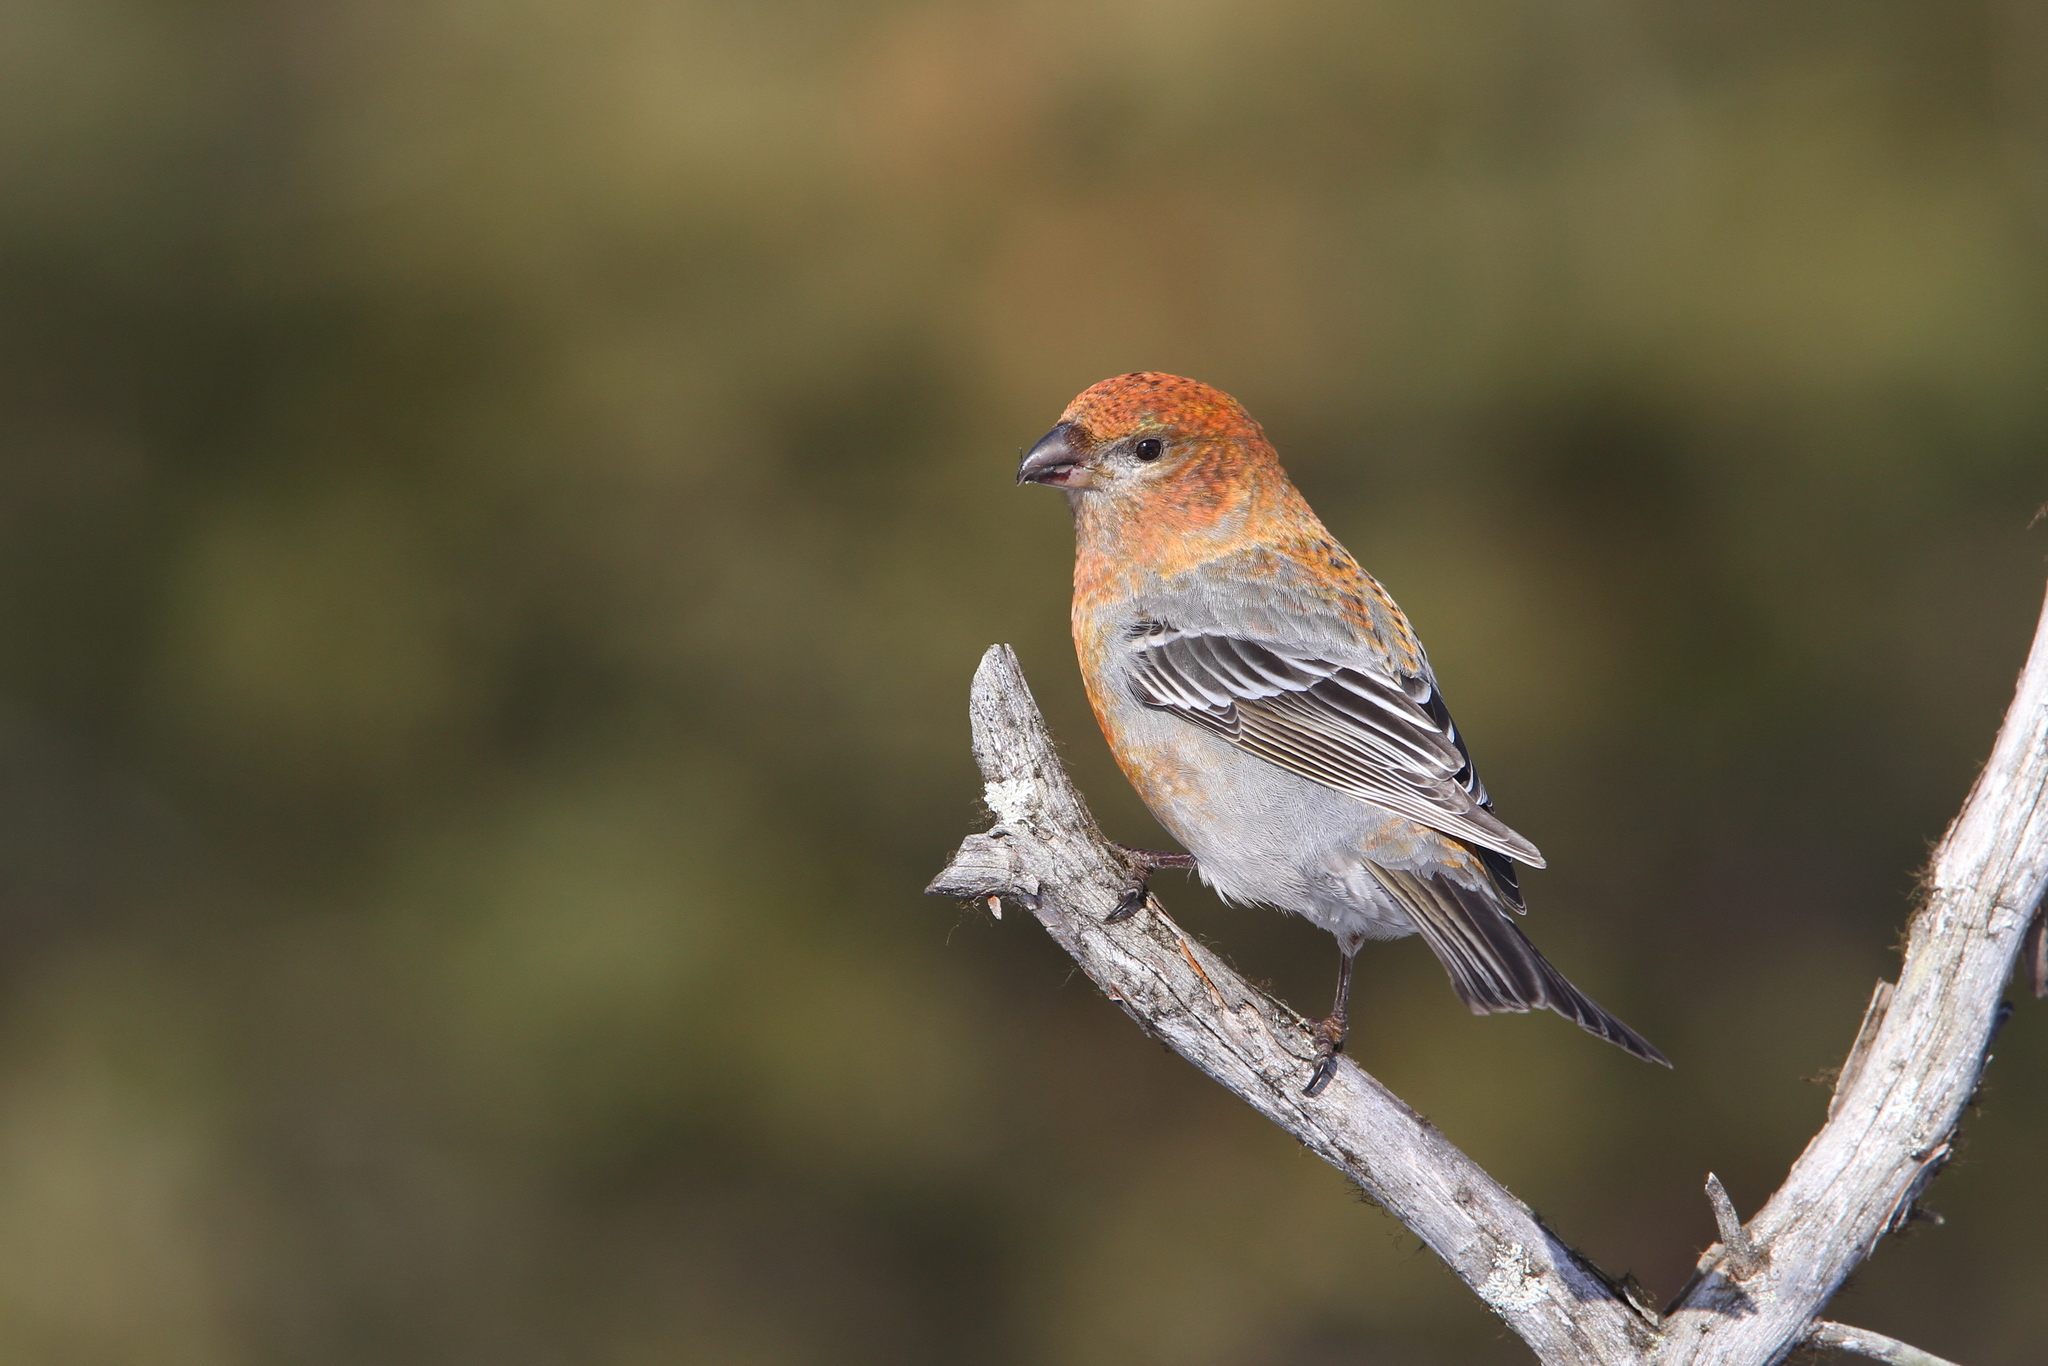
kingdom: Animalia
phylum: Chordata
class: Aves
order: Passeriformes
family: Fringillidae
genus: Pinicola
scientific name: Pinicola enucleator
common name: Pine grosbeak
